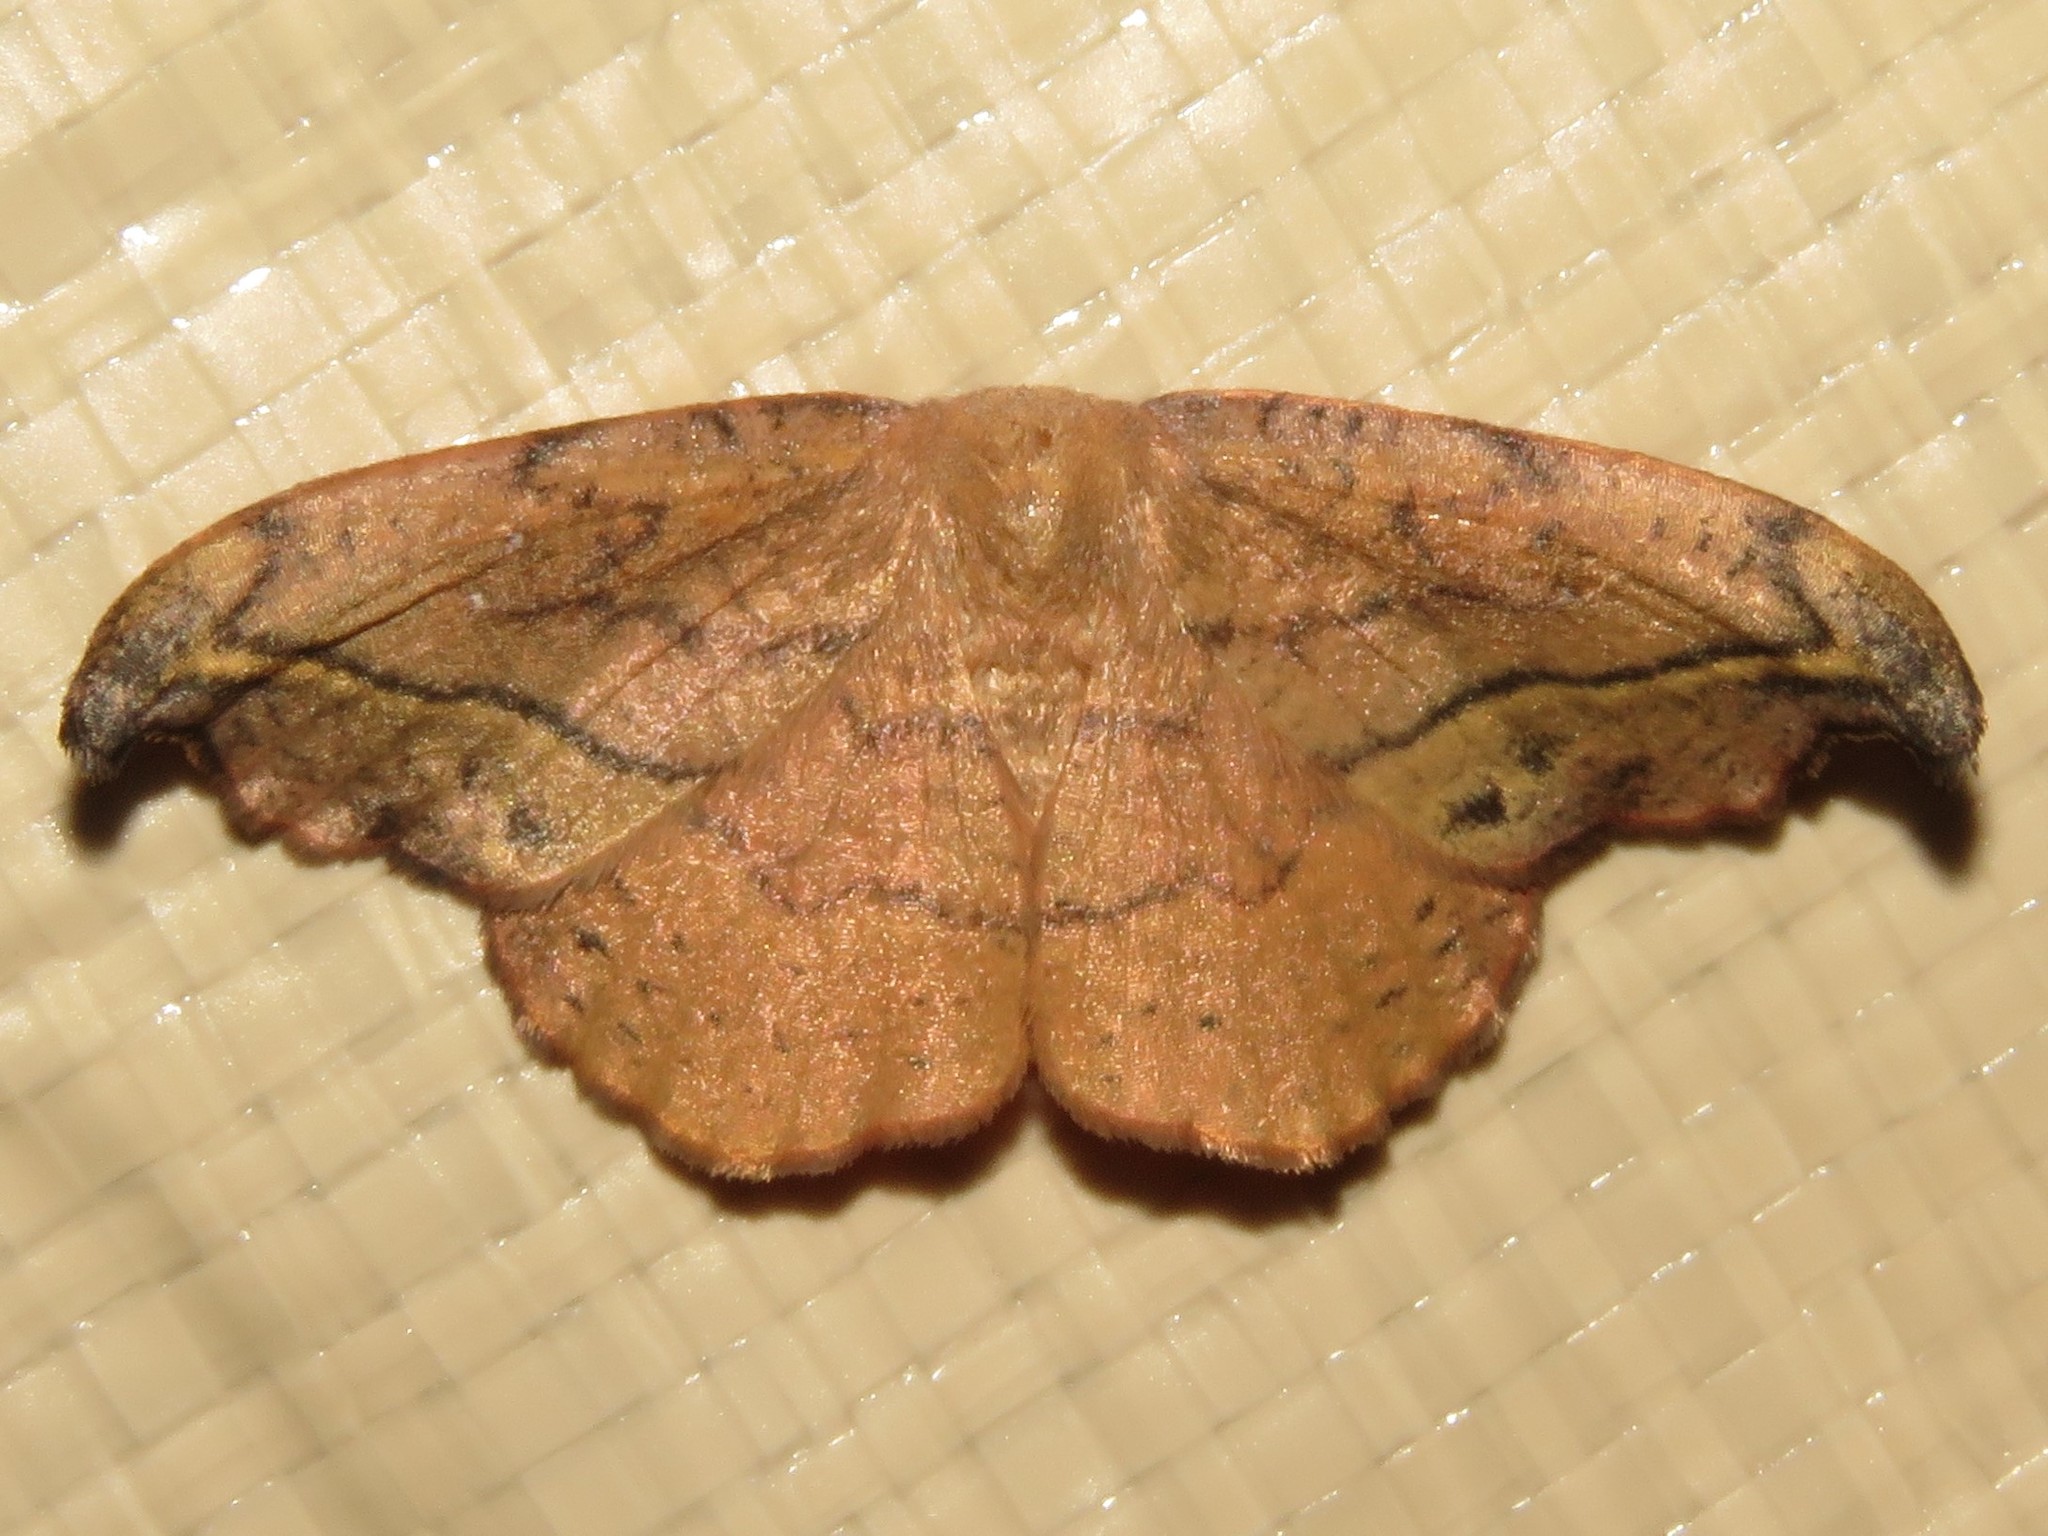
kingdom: Animalia
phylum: Arthropoda
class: Insecta
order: Lepidoptera
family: Drepanidae
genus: Oreta
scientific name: Oreta rosea
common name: Rose hooktip
